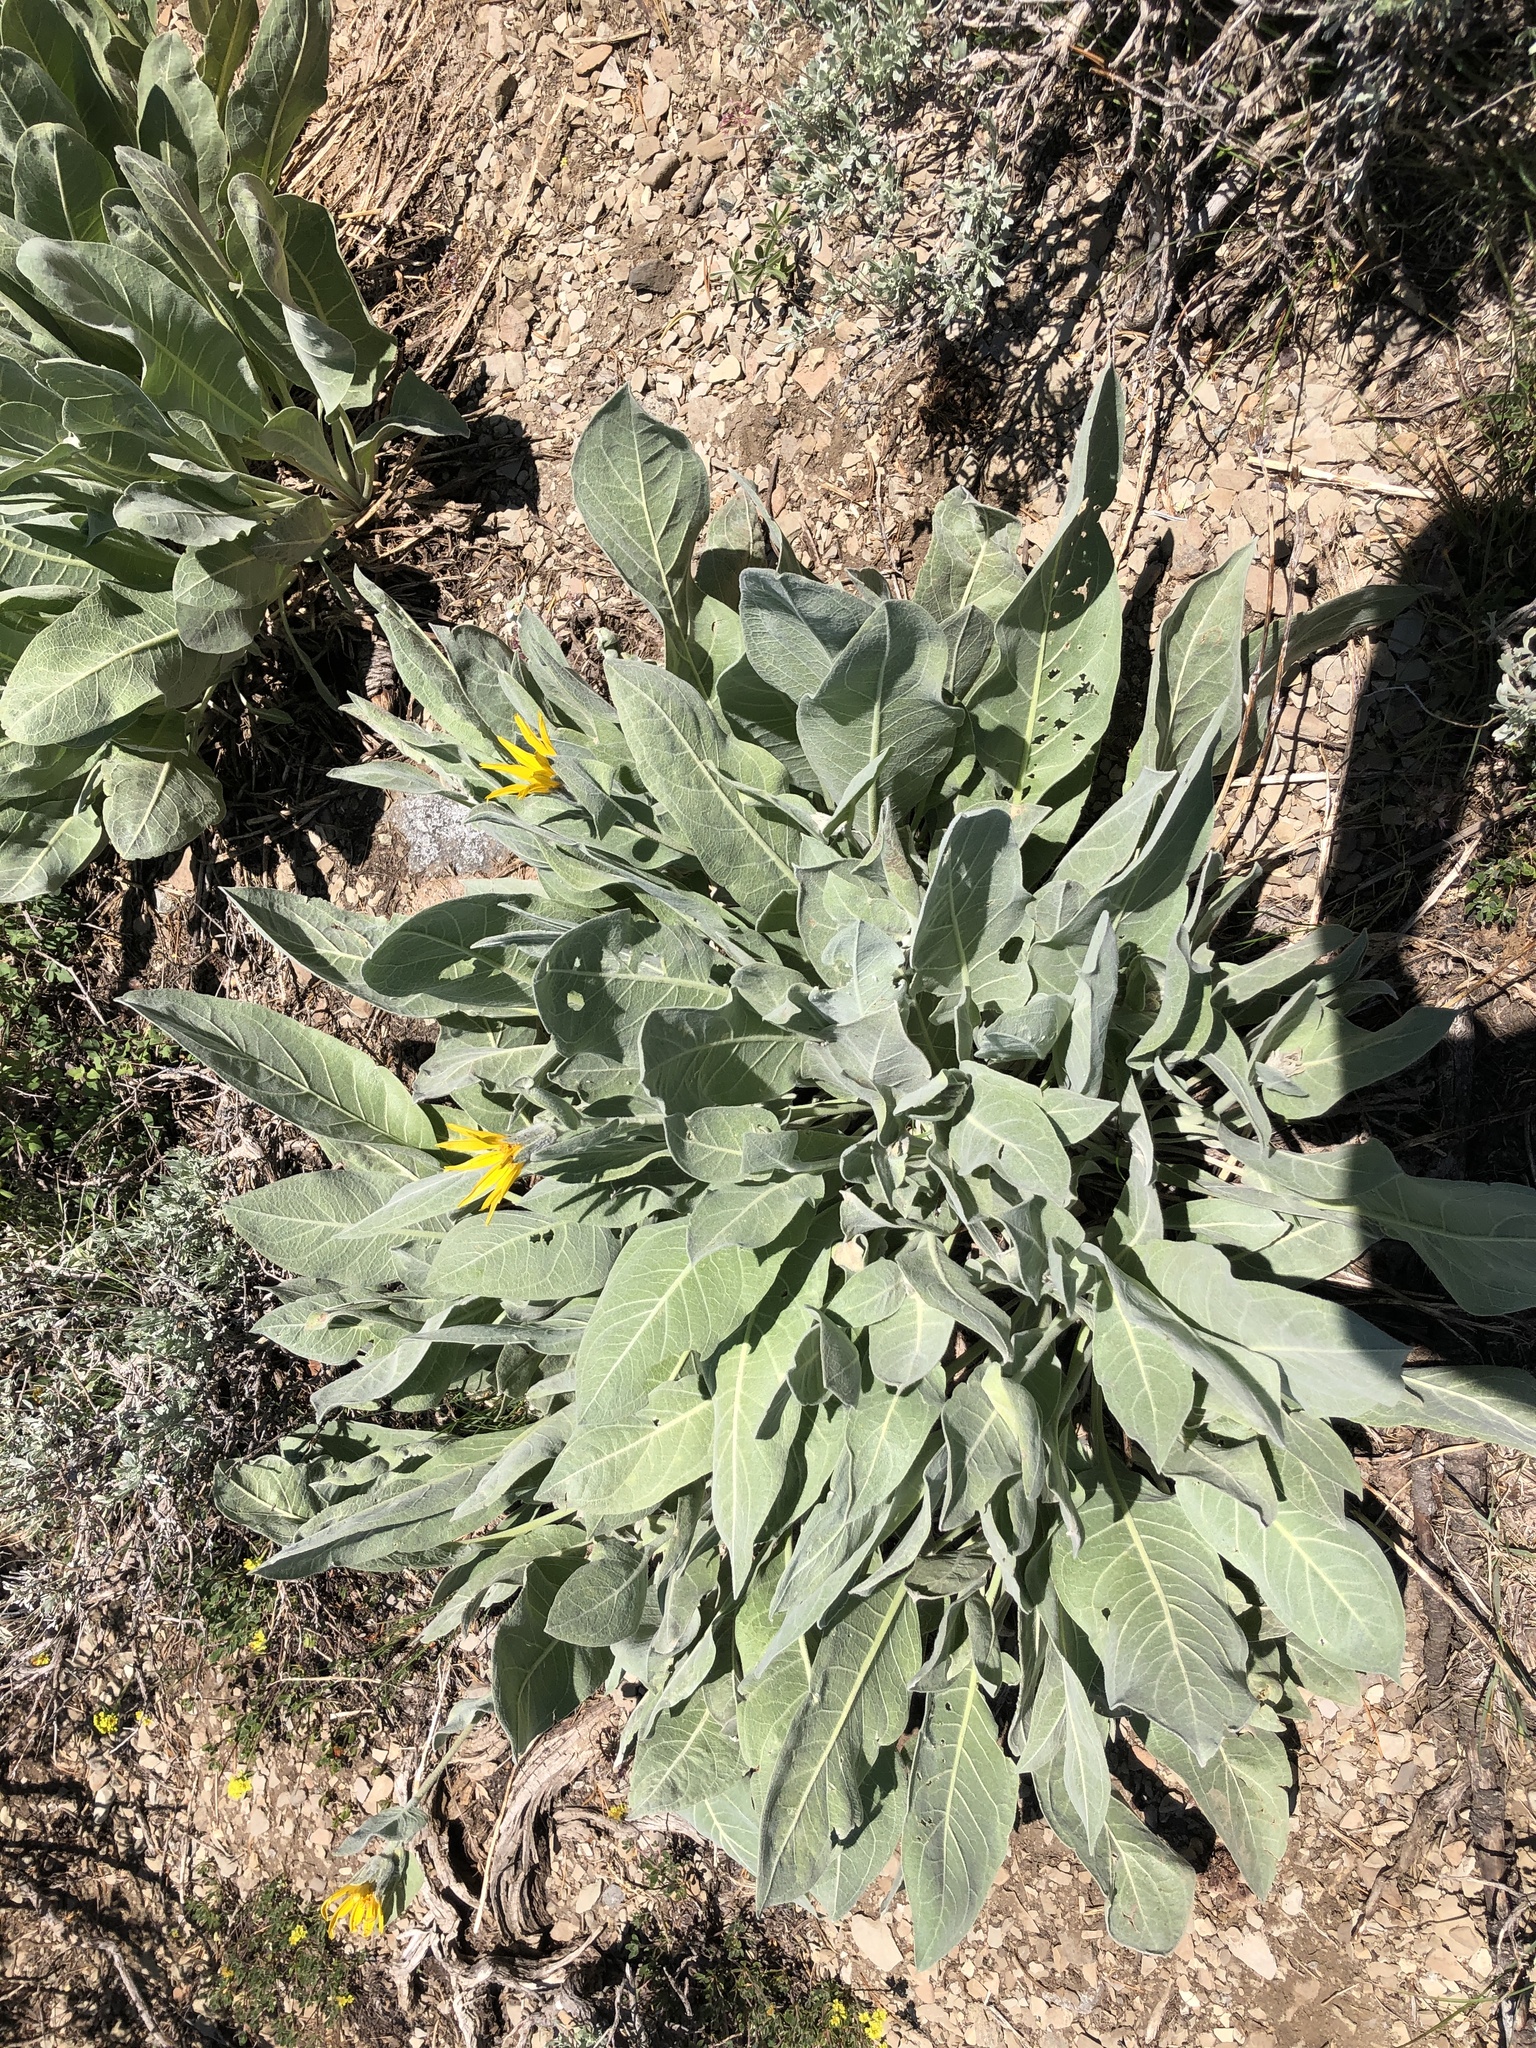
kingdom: Plantae
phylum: Tracheophyta
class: Magnoliopsida
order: Asterales
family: Asteraceae
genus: Wyethia
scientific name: Wyethia mollis
